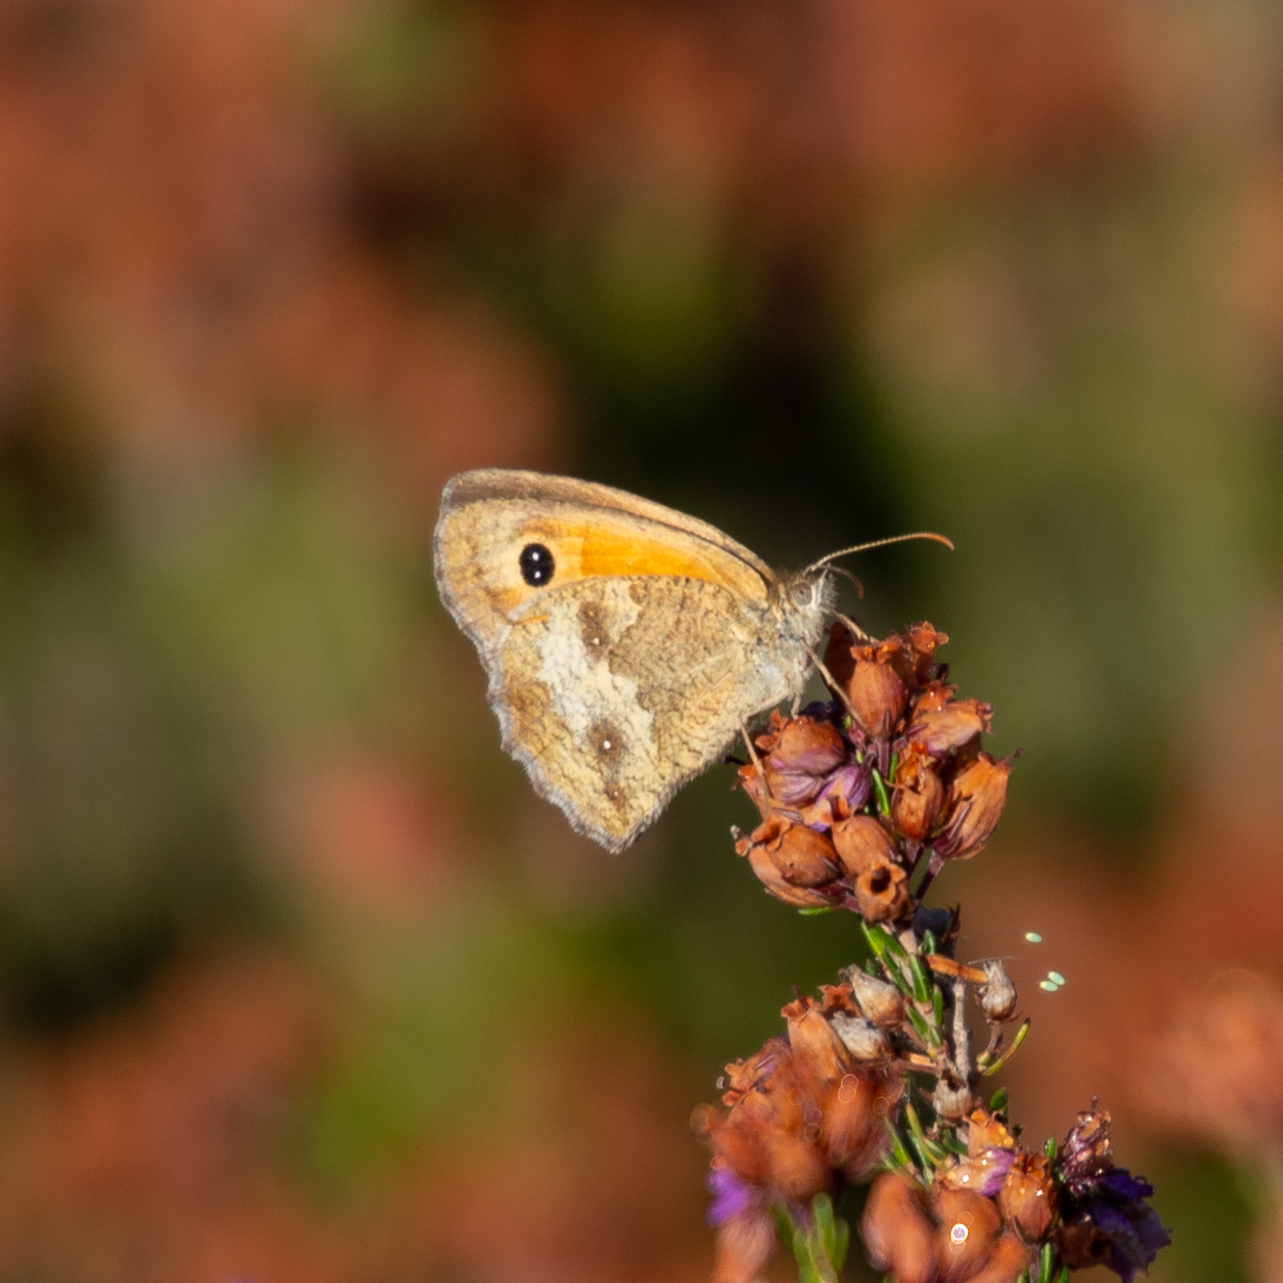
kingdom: Animalia
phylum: Arthropoda
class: Insecta
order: Lepidoptera
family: Nymphalidae
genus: Pyronia
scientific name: Pyronia tithonus
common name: Gatekeeper
